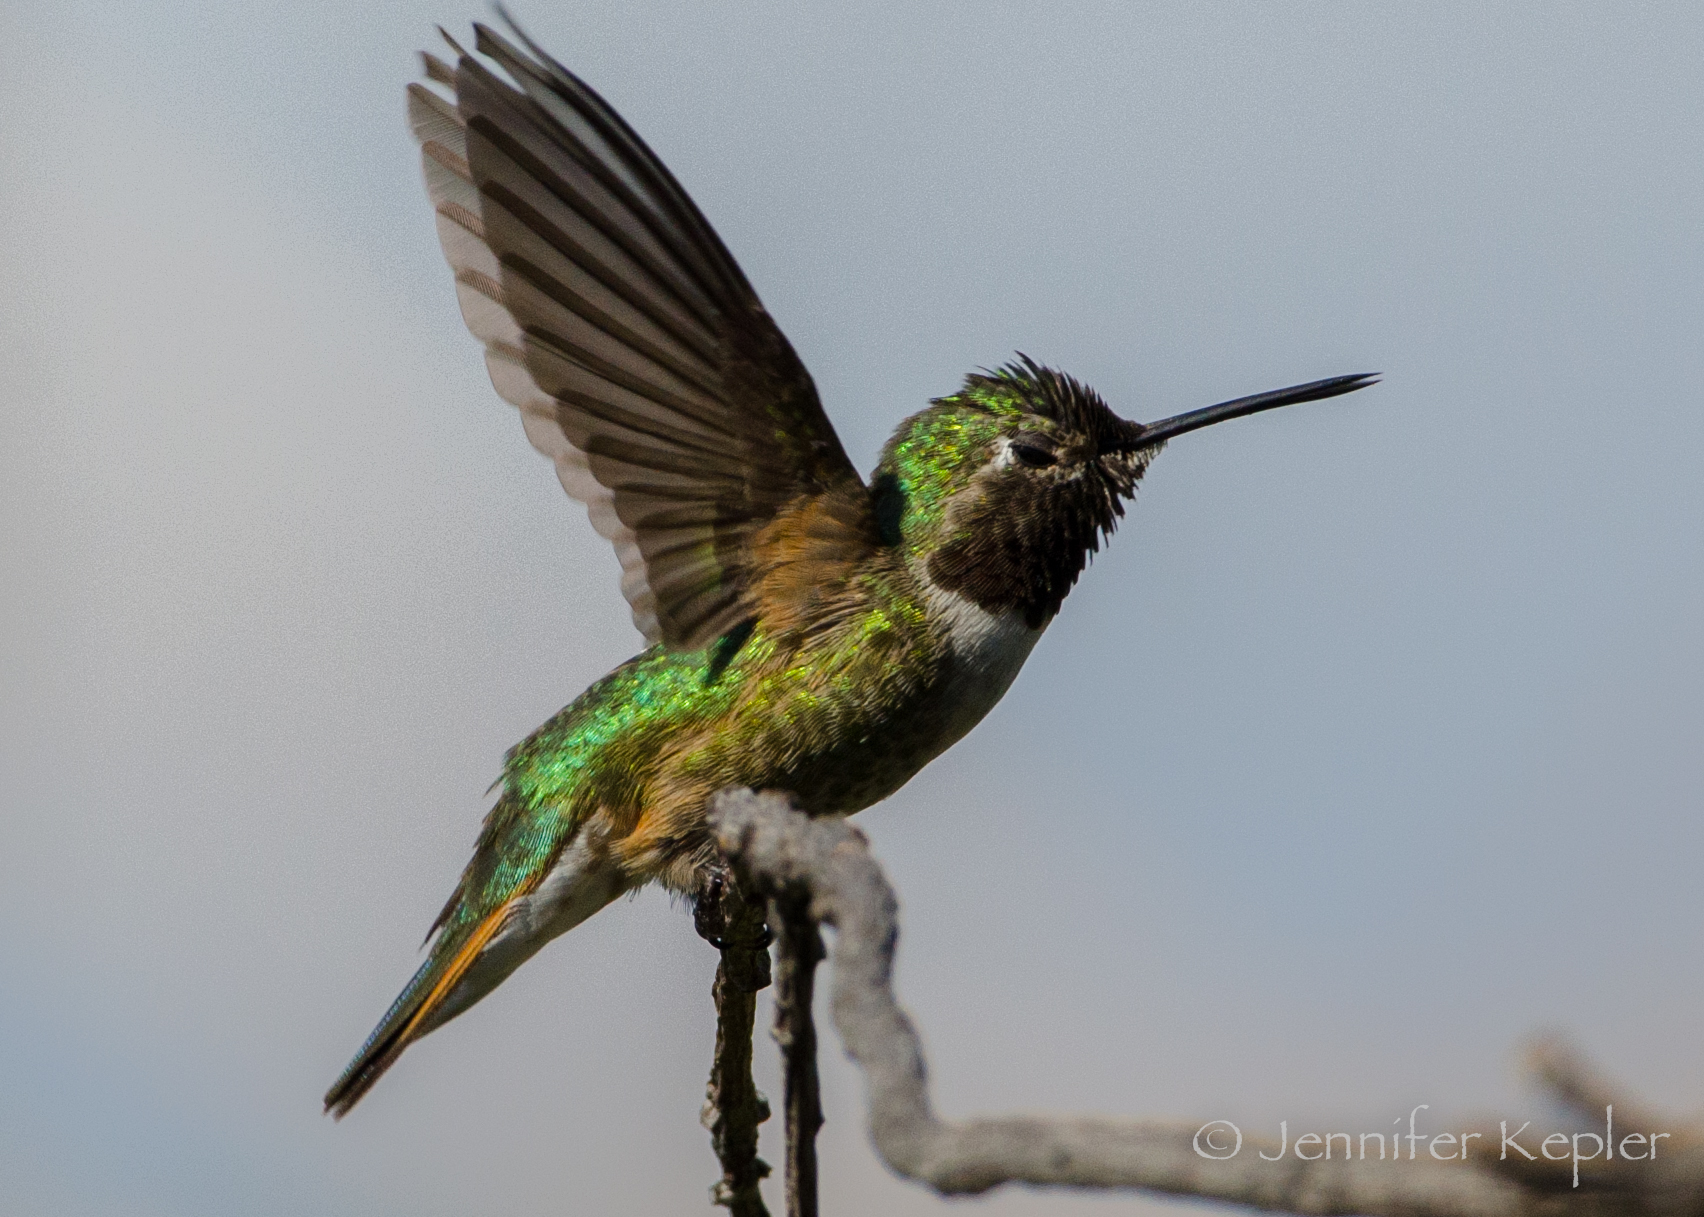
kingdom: Animalia
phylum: Chordata
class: Aves
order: Apodiformes
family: Trochilidae
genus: Selasphorus
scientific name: Selasphorus platycercus
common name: Broad-tailed hummingbird
